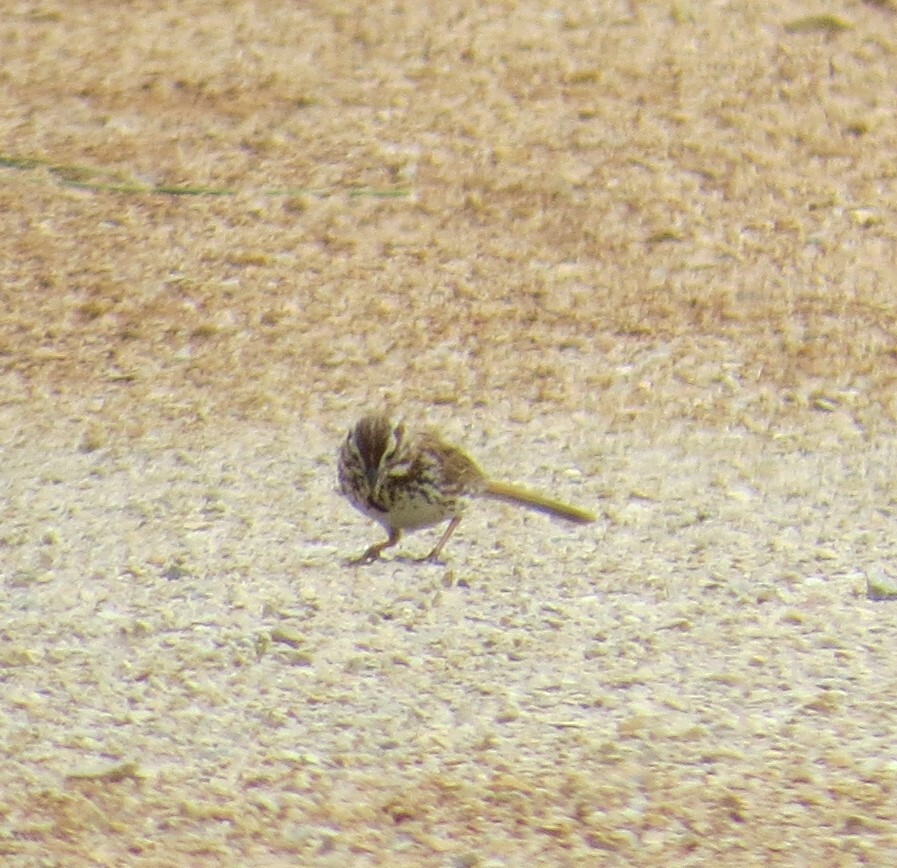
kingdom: Animalia
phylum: Chordata
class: Aves
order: Passeriformes
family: Passerellidae
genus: Melospiza
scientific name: Melospiza melodia
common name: Song sparrow
